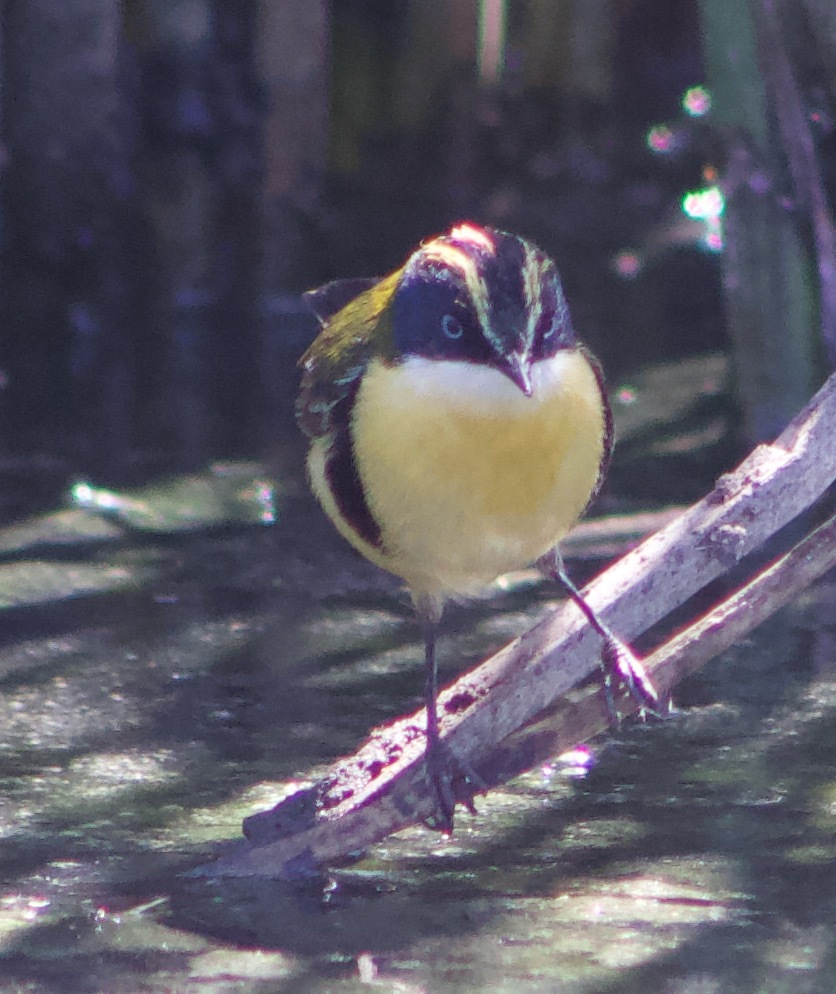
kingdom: Animalia
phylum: Chordata
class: Aves
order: Passeriformes
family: Tyrannidae
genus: Tachuris
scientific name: Tachuris rubrigastra
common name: Many-colored rush tyrant
